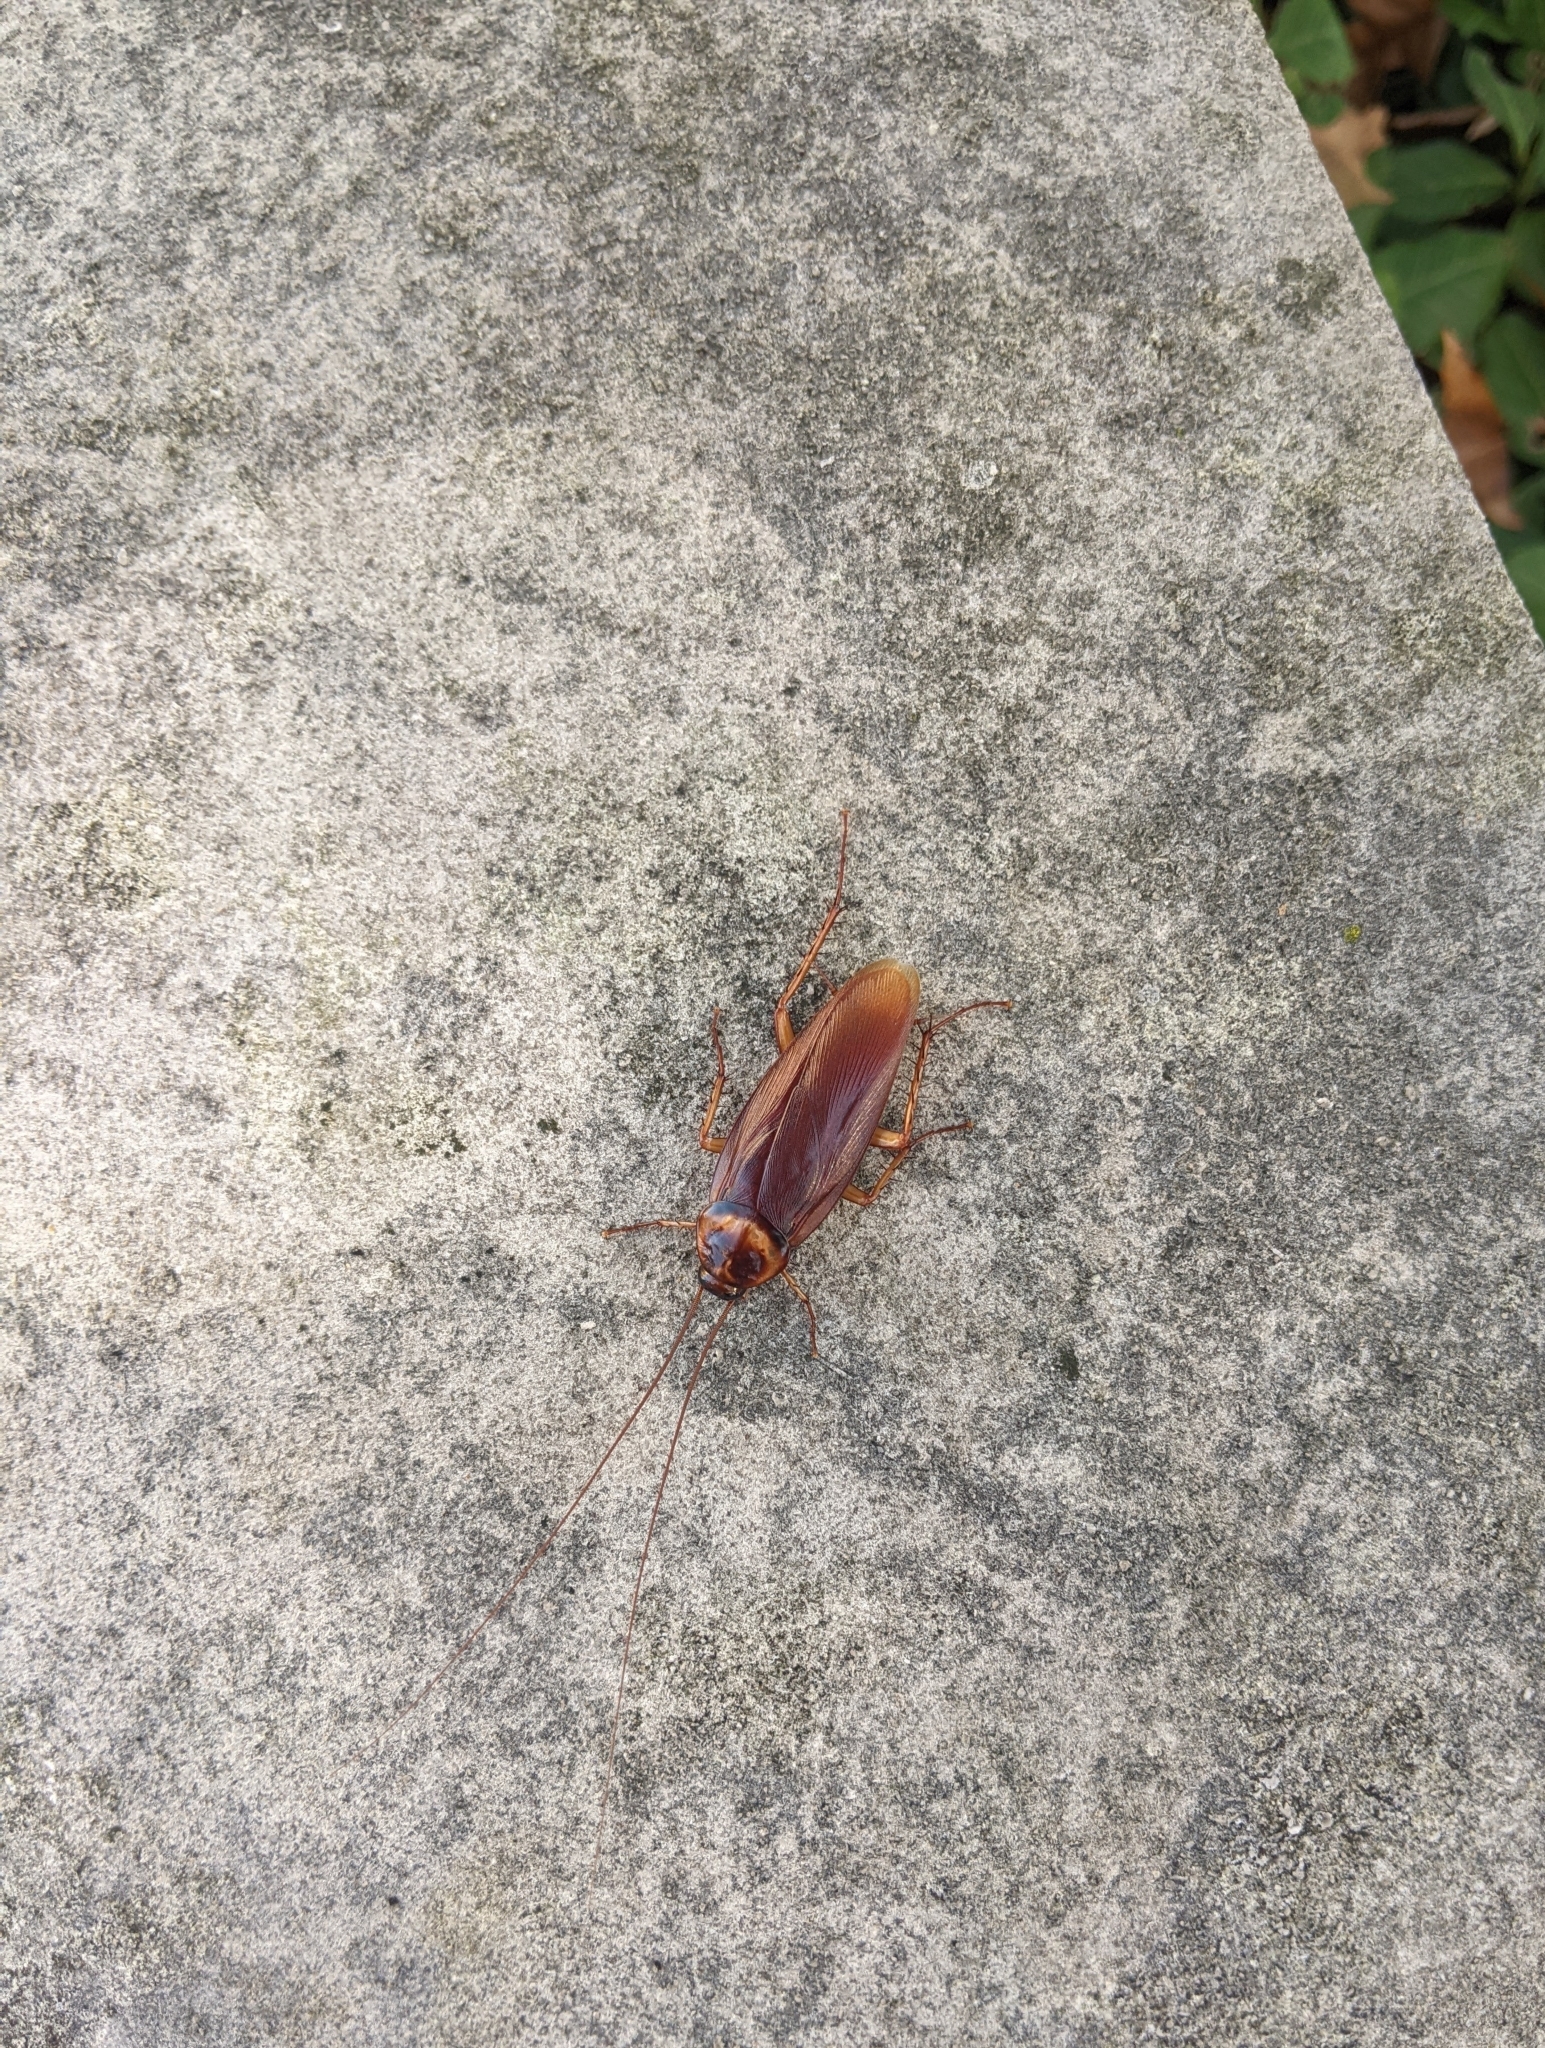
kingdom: Animalia
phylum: Arthropoda
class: Insecta
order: Blattodea
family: Blattidae
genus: Periplaneta
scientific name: Periplaneta americana
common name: American cockroach
